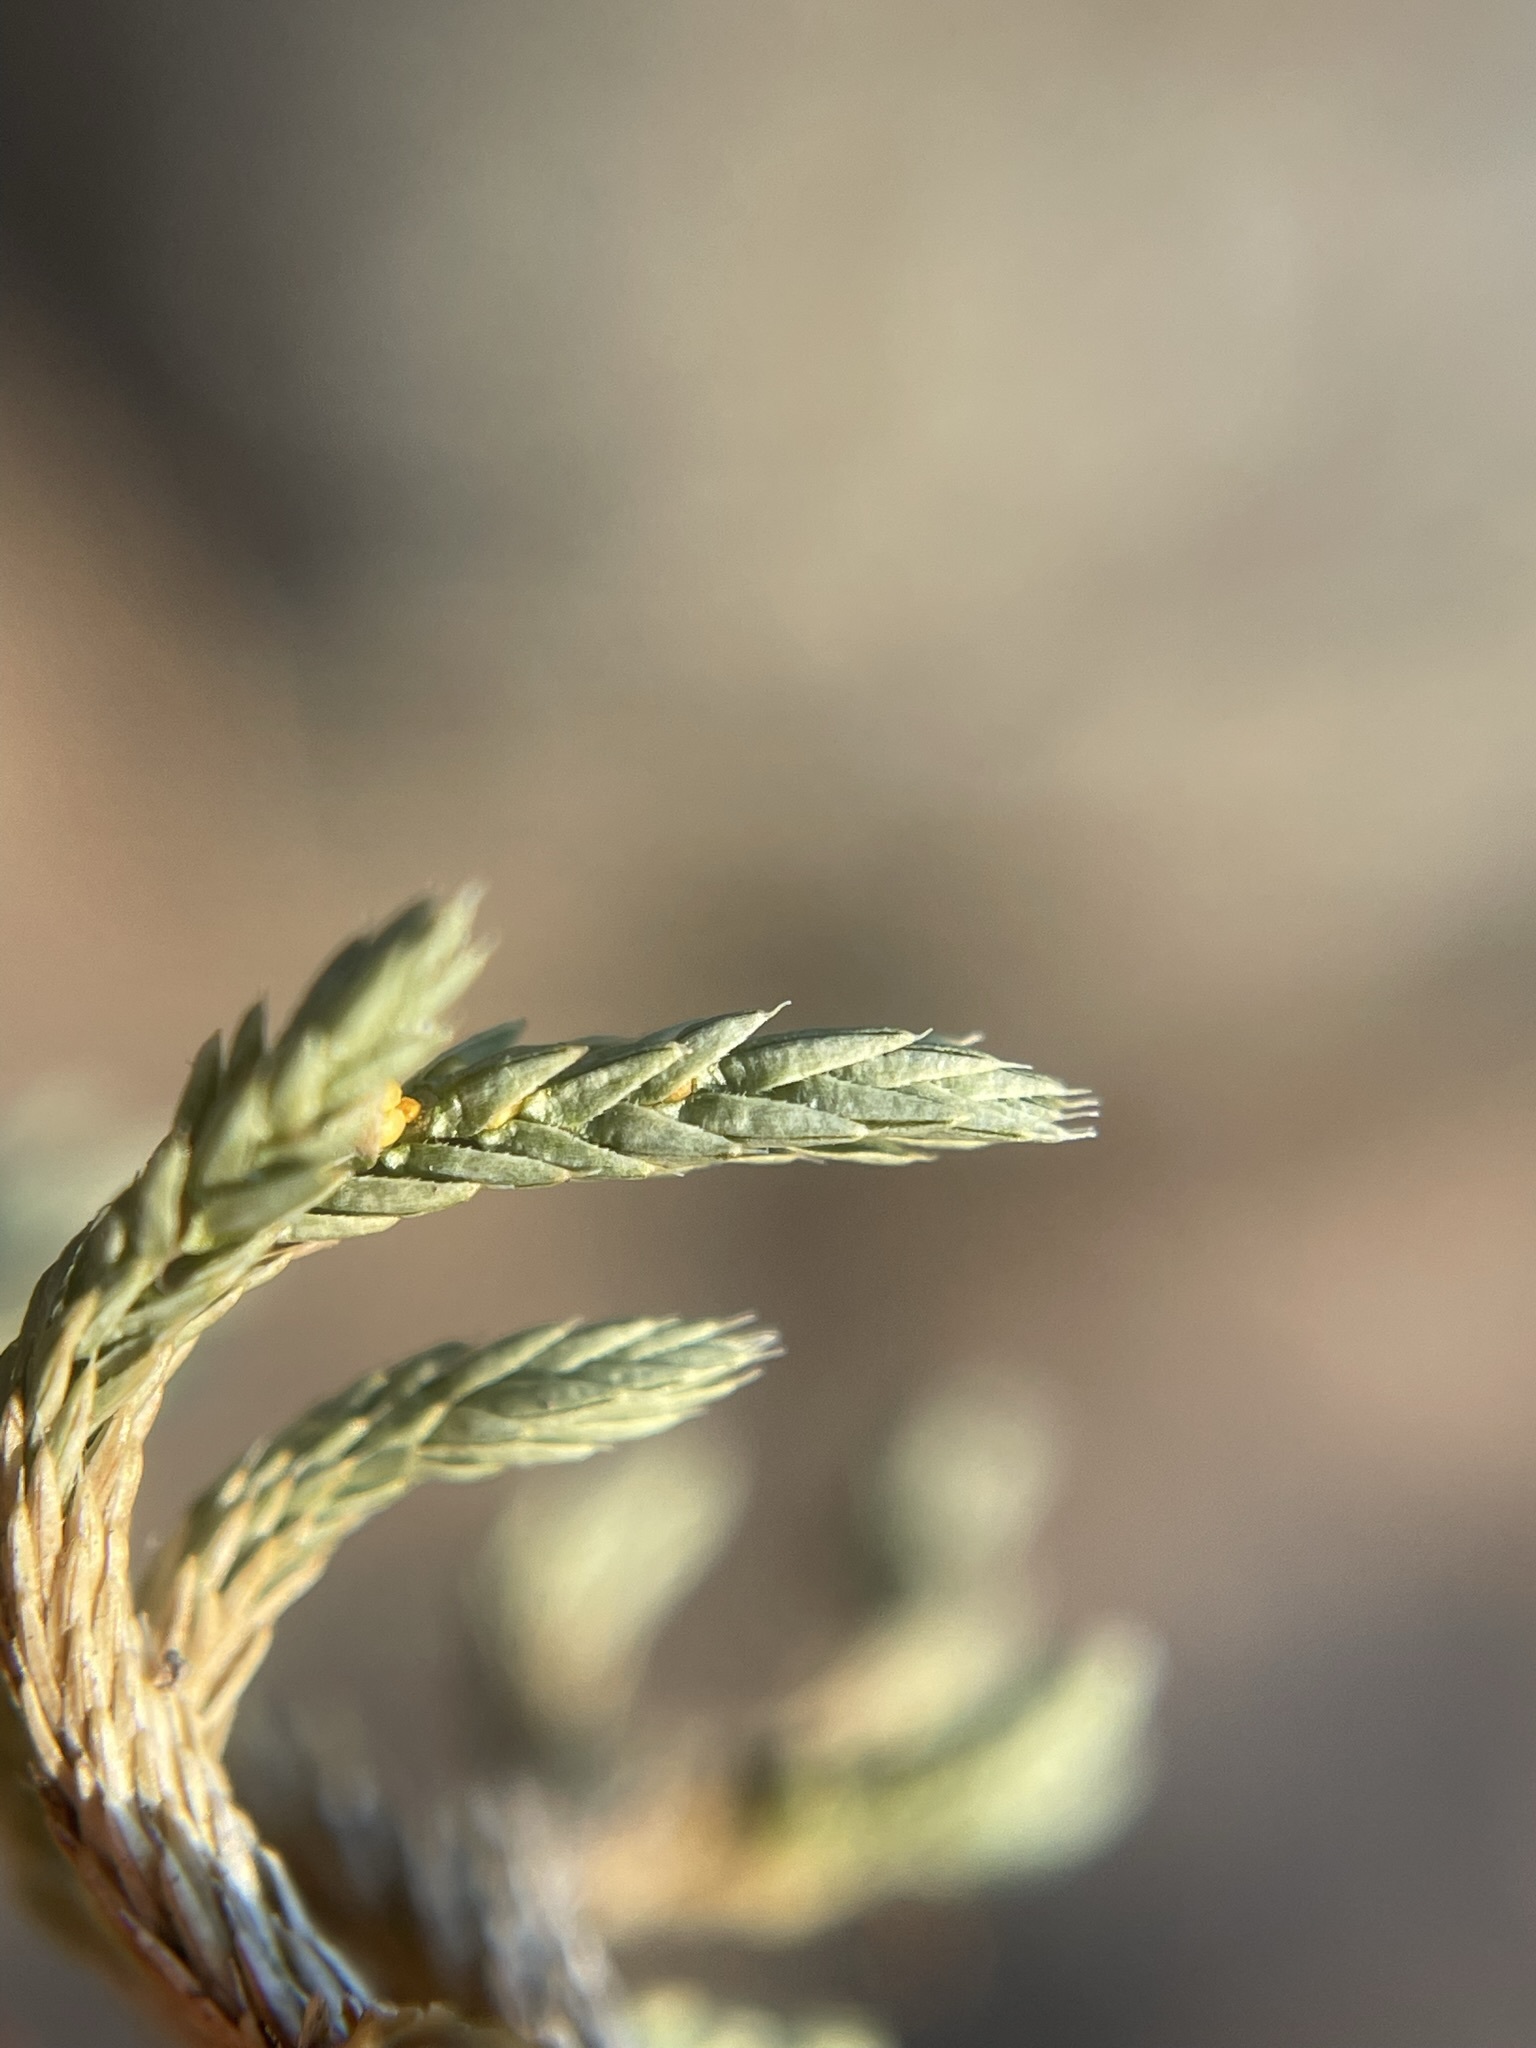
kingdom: Plantae
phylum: Tracheophyta
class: Lycopodiopsida
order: Selaginellales
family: Selaginellaceae
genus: Selaginella
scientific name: Selaginella wallacei
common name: Wallace's selaginella
